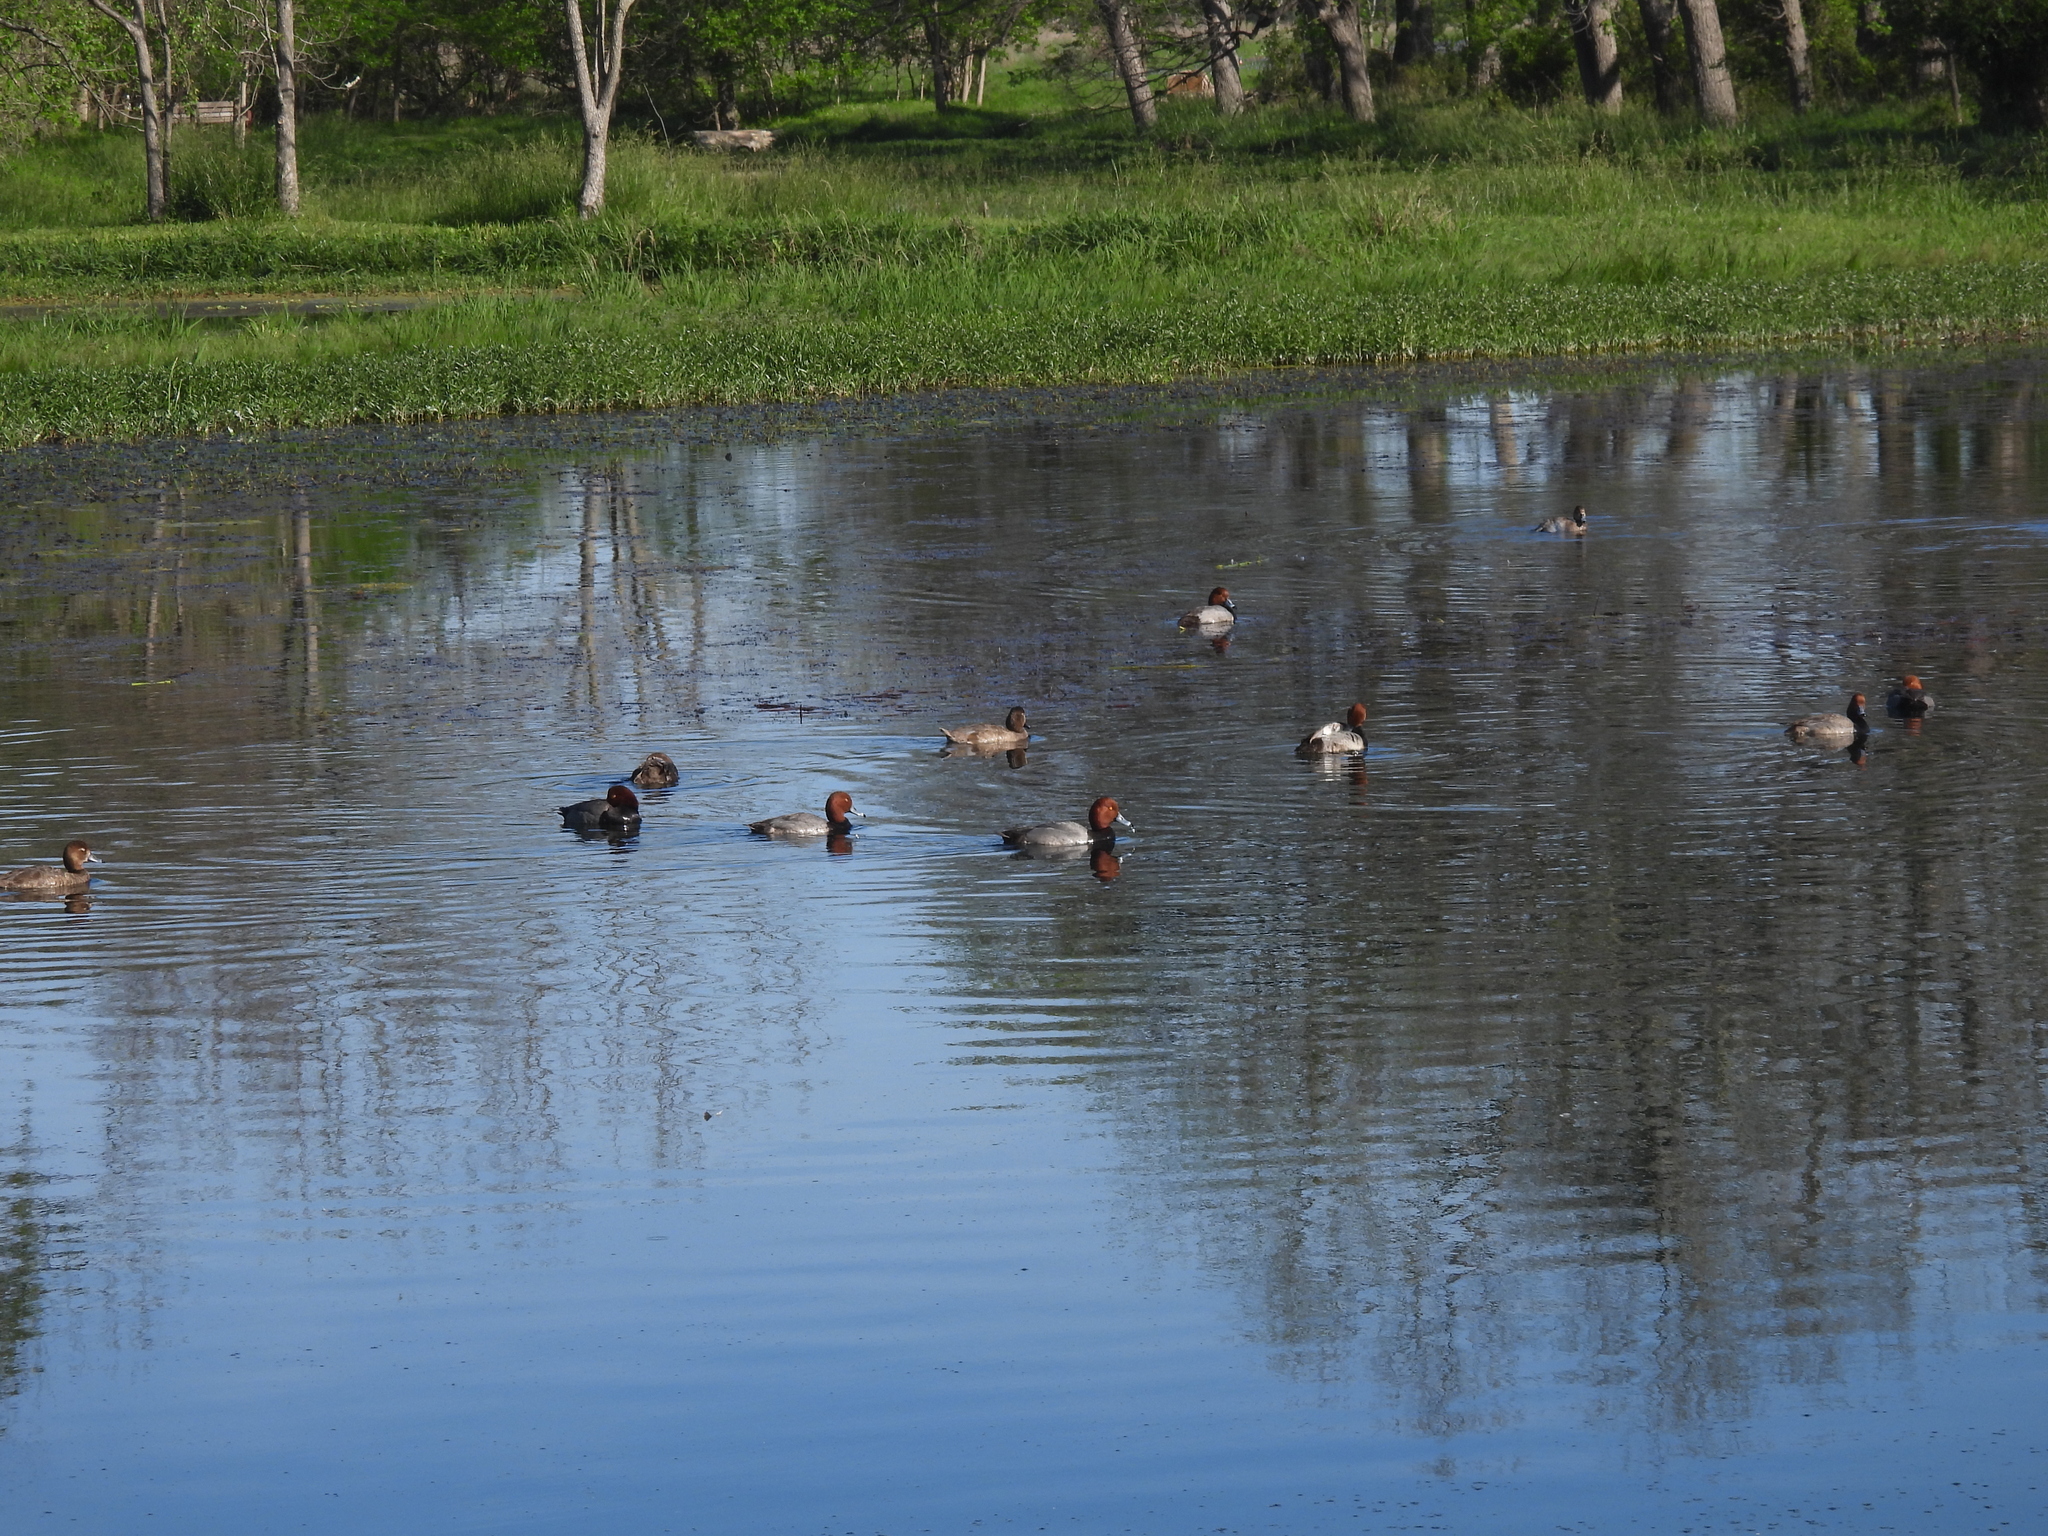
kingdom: Animalia
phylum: Chordata
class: Aves
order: Anseriformes
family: Anatidae
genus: Aythya
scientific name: Aythya americana
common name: Redhead
